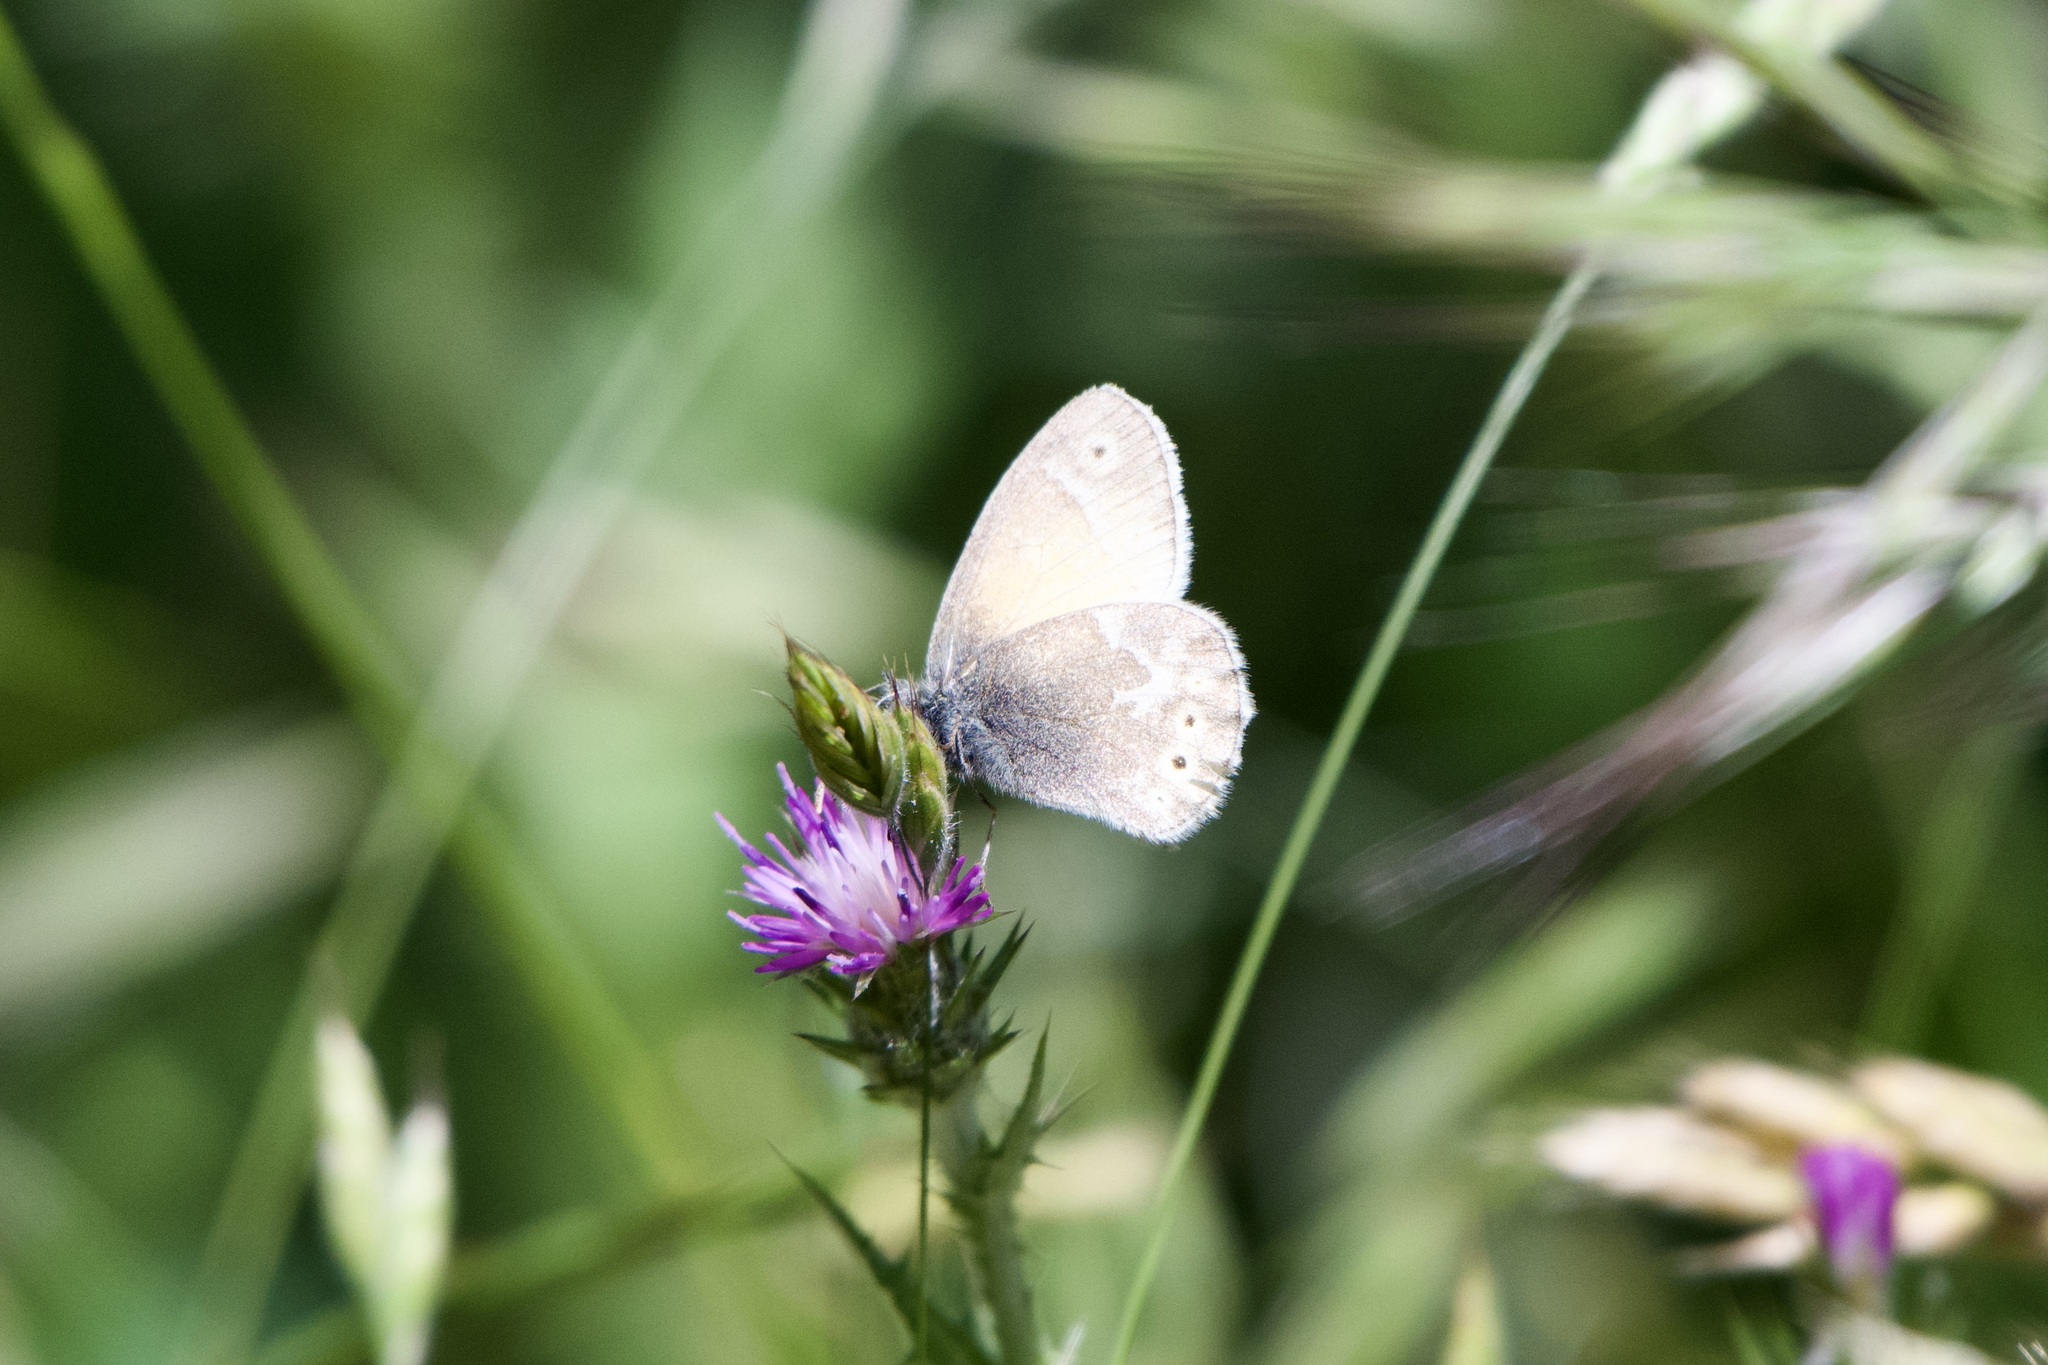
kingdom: Animalia
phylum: Arthropoda
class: Insecta
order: Lepidoptera
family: Nymphalidae
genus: Coenonympha
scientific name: Coenonympha california
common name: Common ringlet
